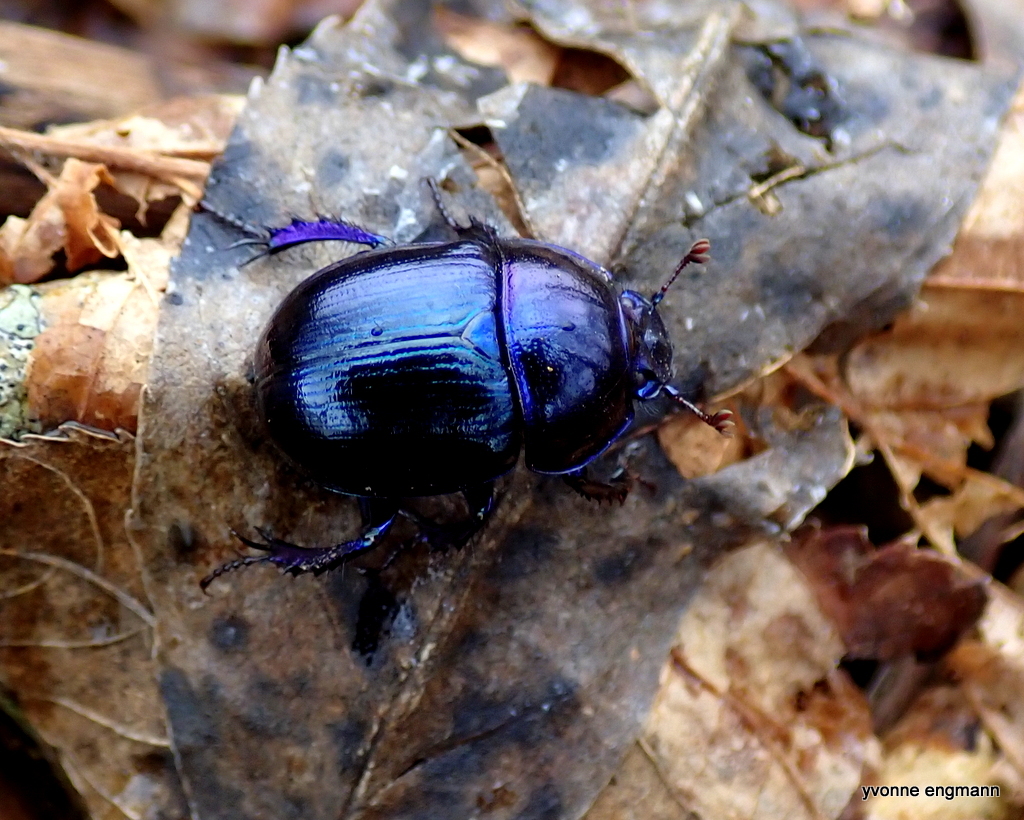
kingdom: Animalia
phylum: Arthropoda
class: Insecta
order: Coleoptera
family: Geotrupidae
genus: Anoplotrupes
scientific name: Anoplotrupes stercorosus
